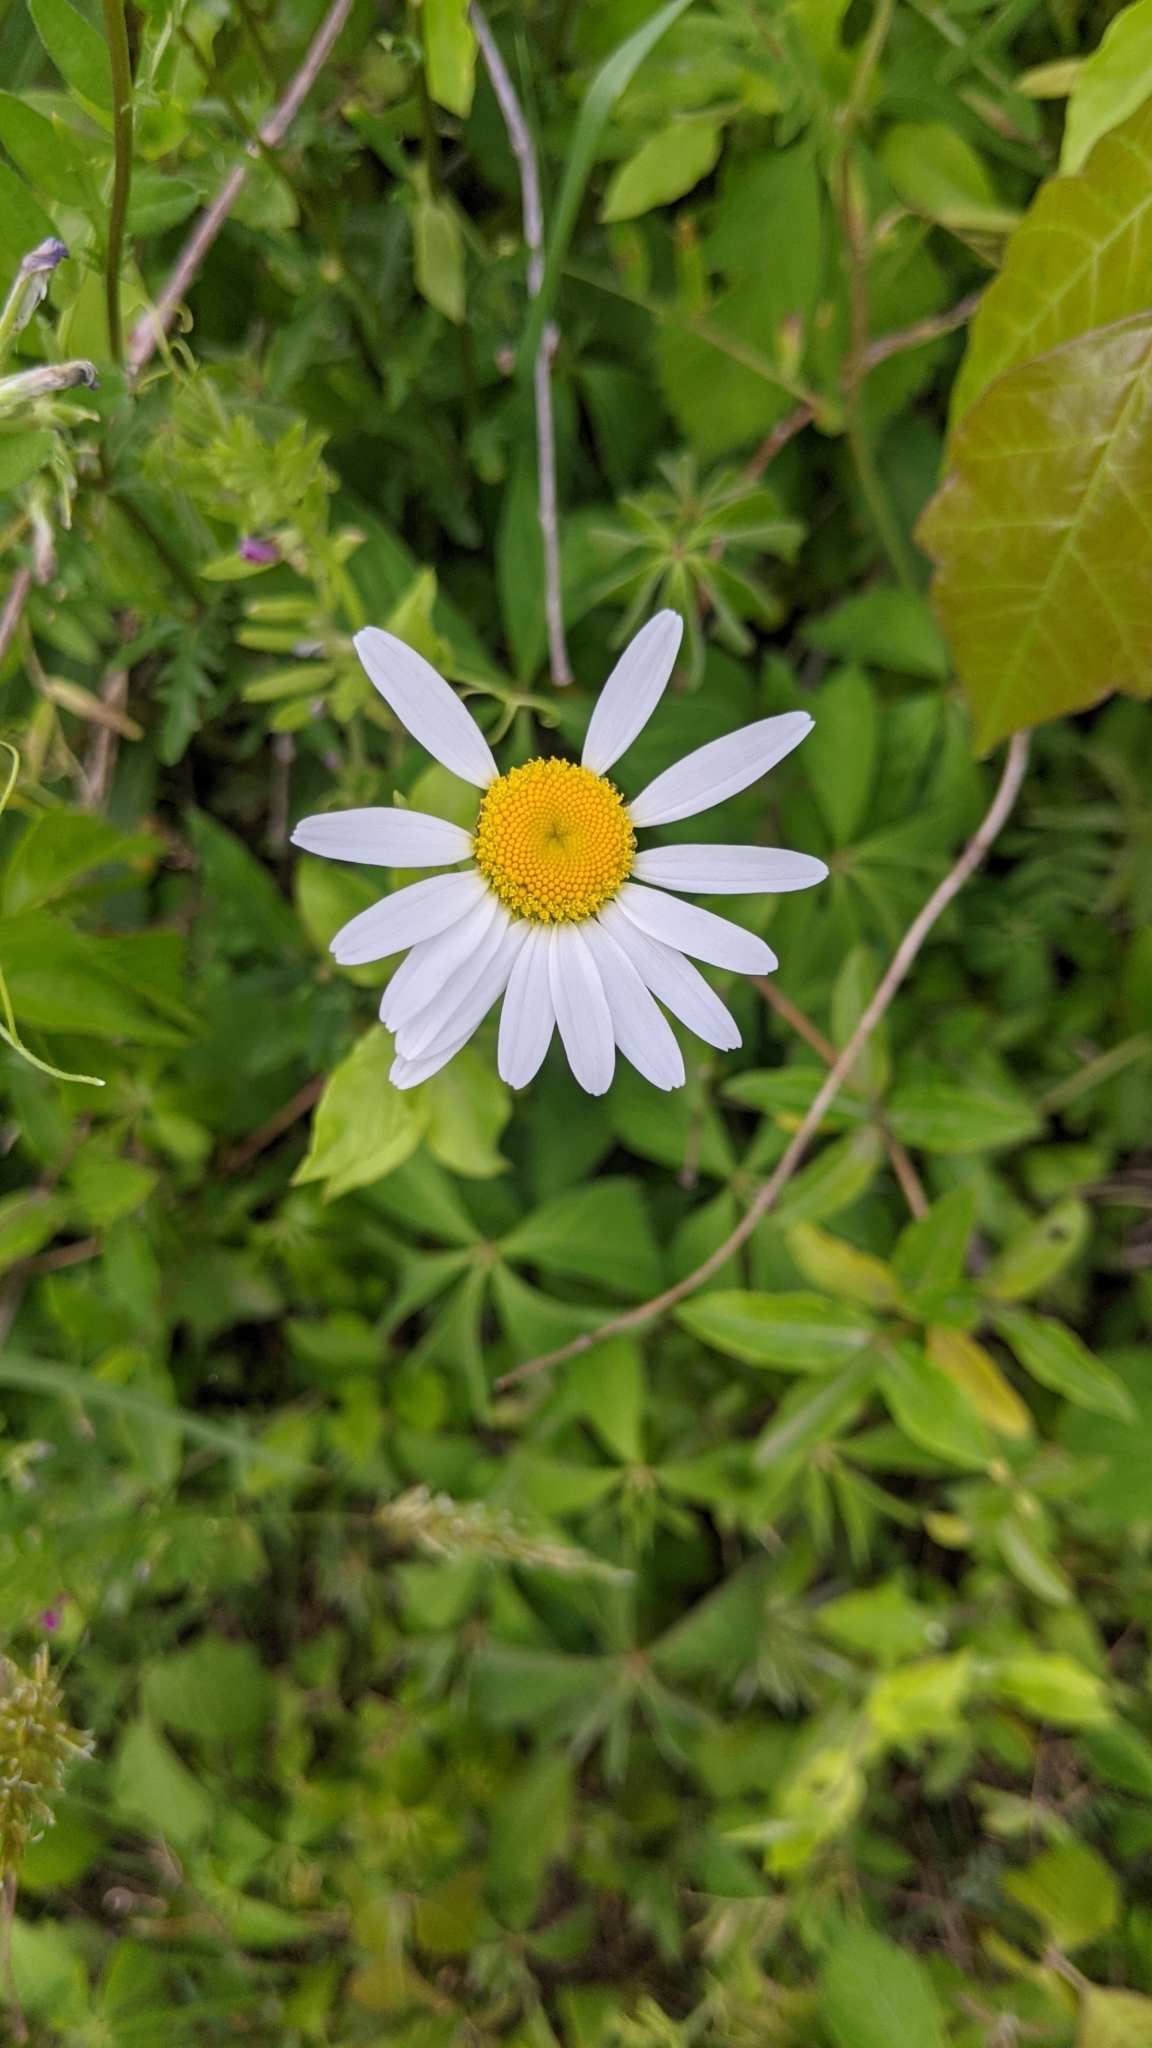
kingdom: Plantae
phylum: Tracheophyta
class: Magnoliopsida
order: Asterales
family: Asteraceae
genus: Leucanthemum
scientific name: Leucanthemum vulgare
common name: Oxeye daisy
